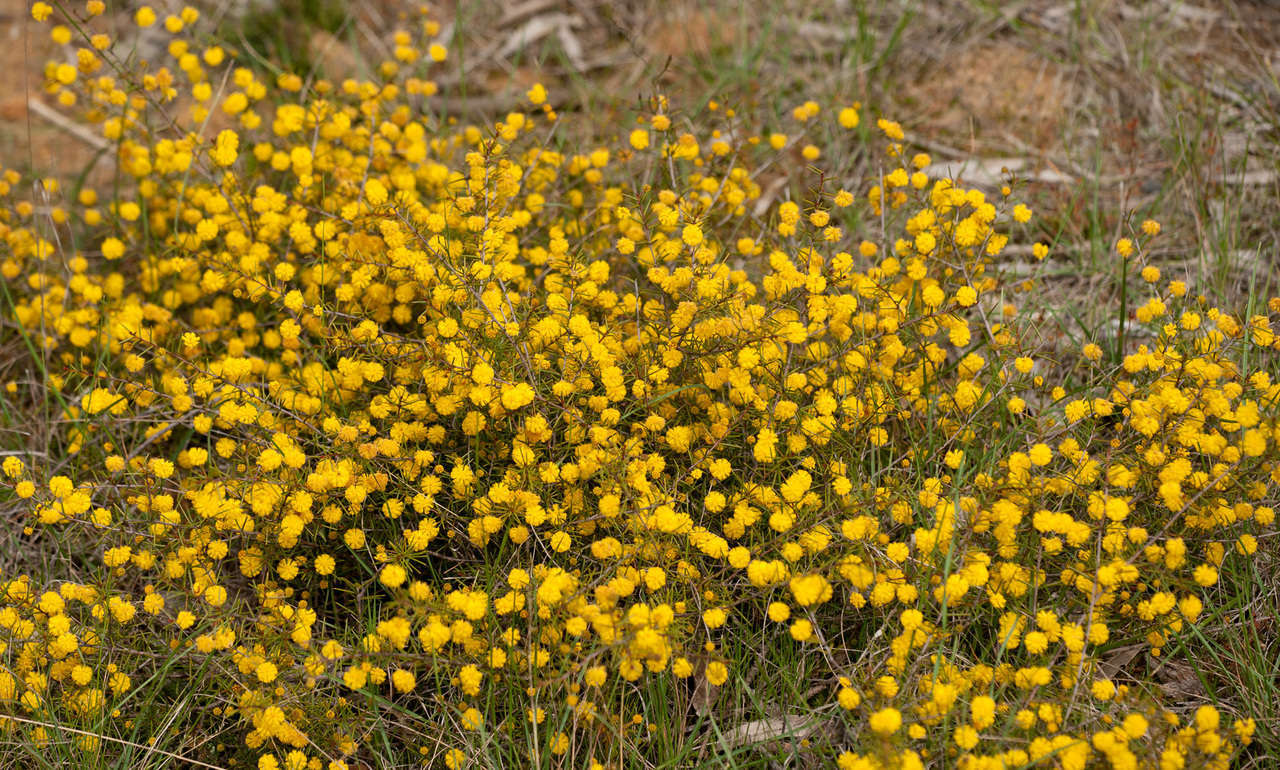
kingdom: Plantae
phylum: Tracheophyta
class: Magnoliopsida
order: Fabales
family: Fabaceae
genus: Acacia
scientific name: Acacia brownii
